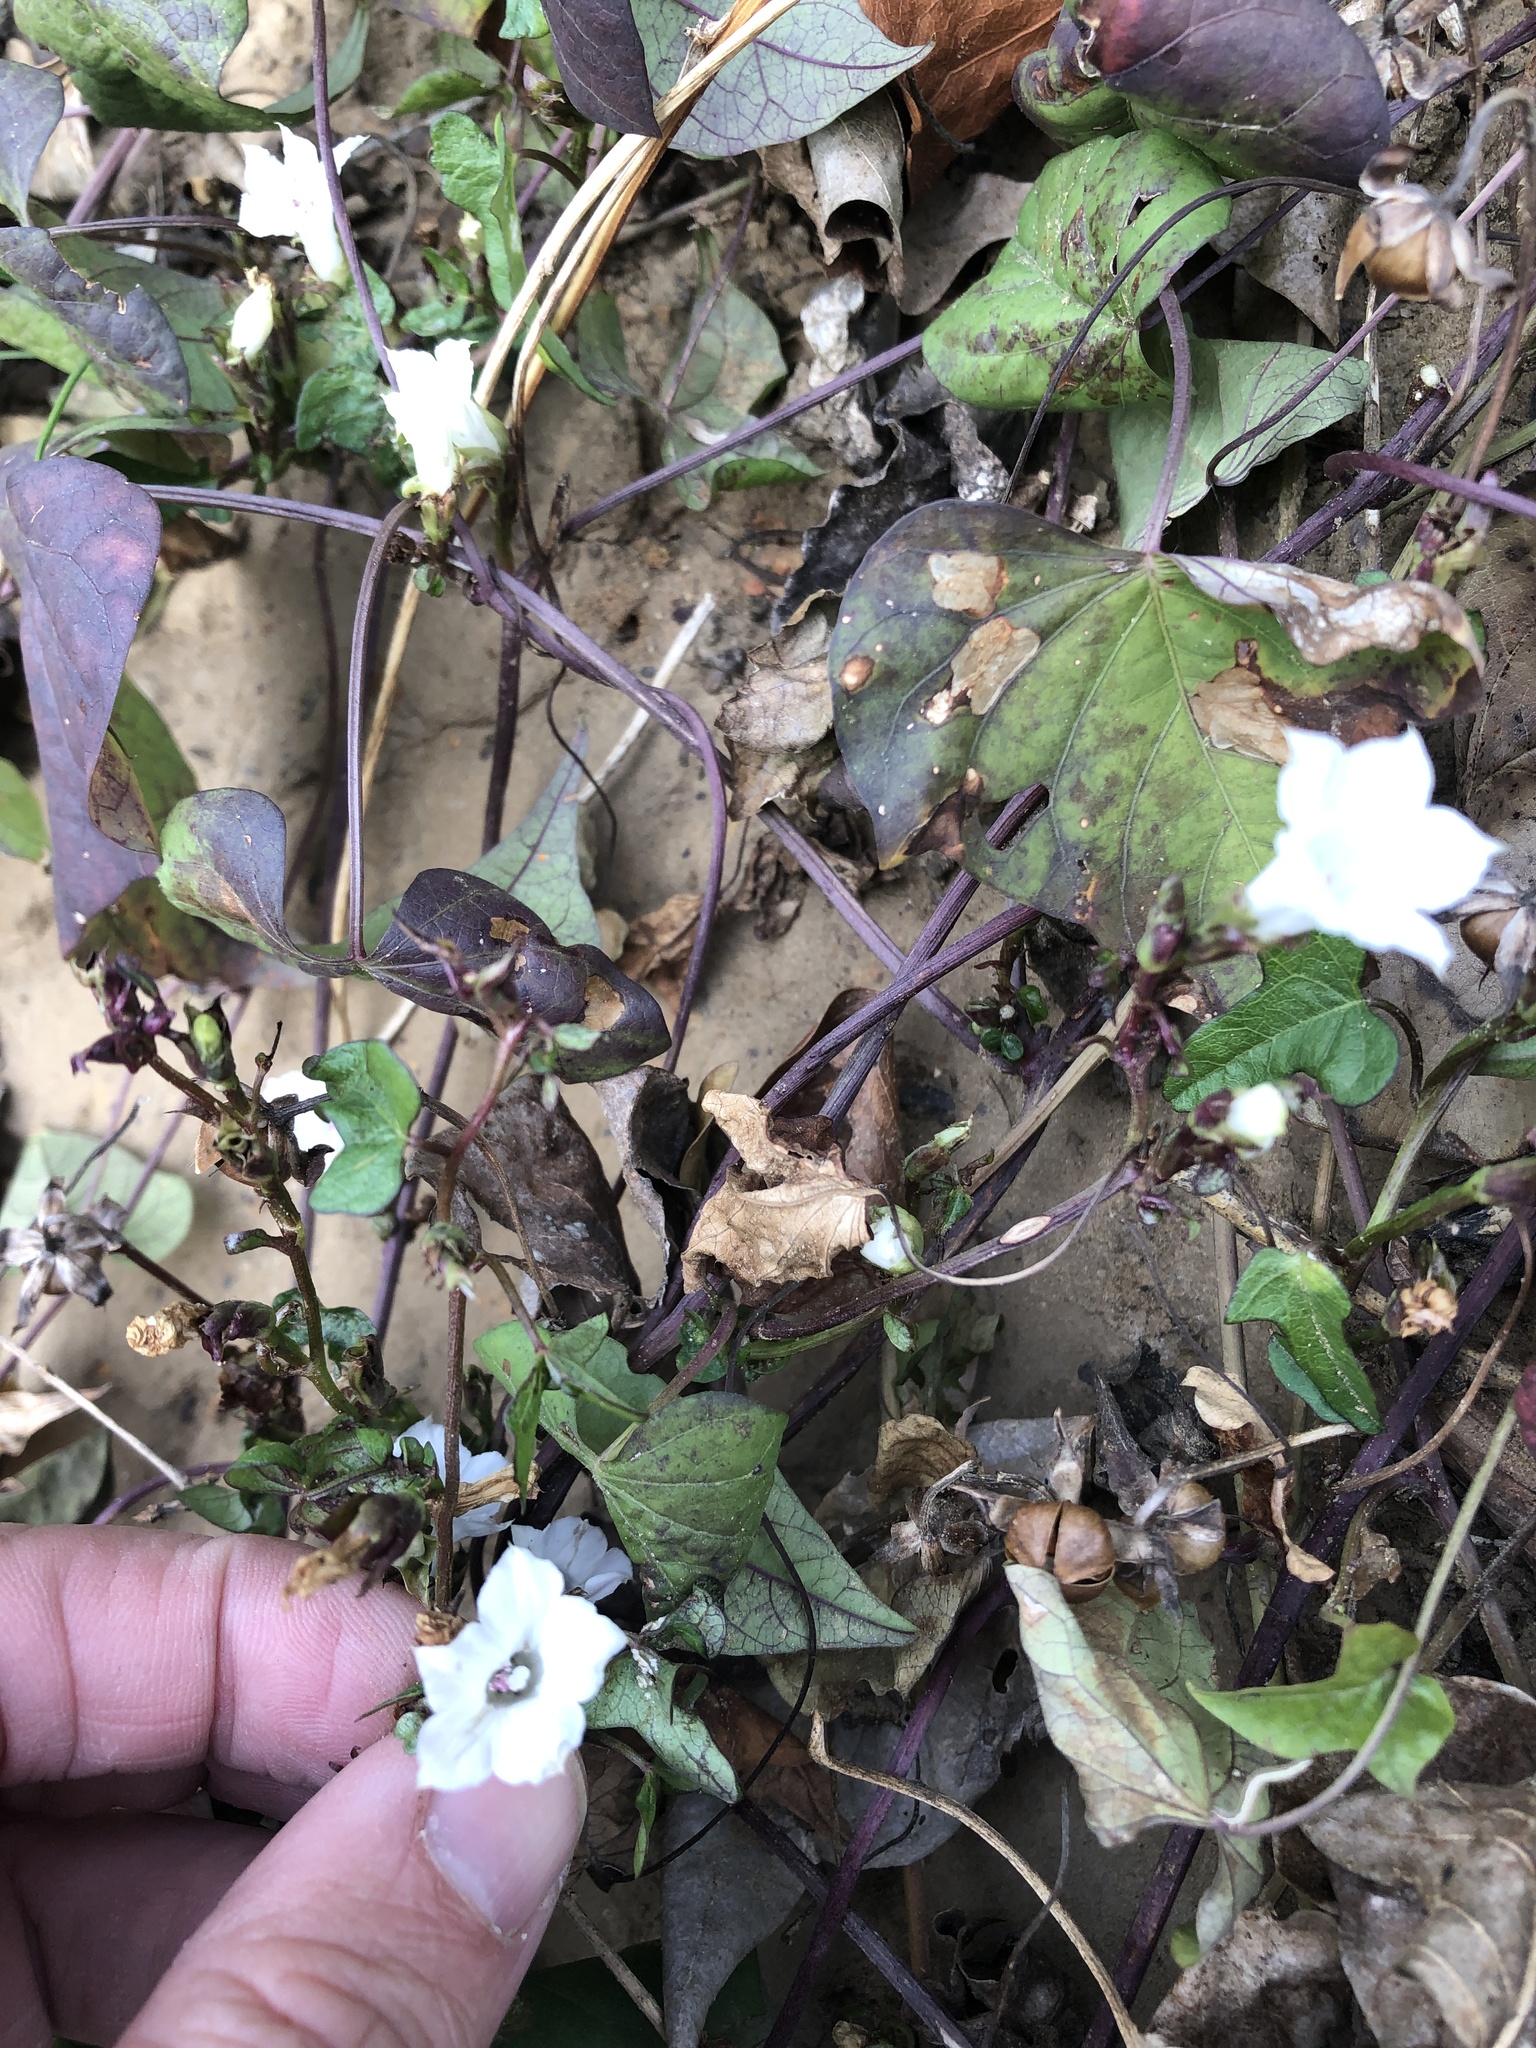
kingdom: Plantae
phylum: Tracheophyta
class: Magnoliopsida
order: Solanales
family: Convolvulaceae
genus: Ipomoea
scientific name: Ipomoea lacunosa
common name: White morning-glory
